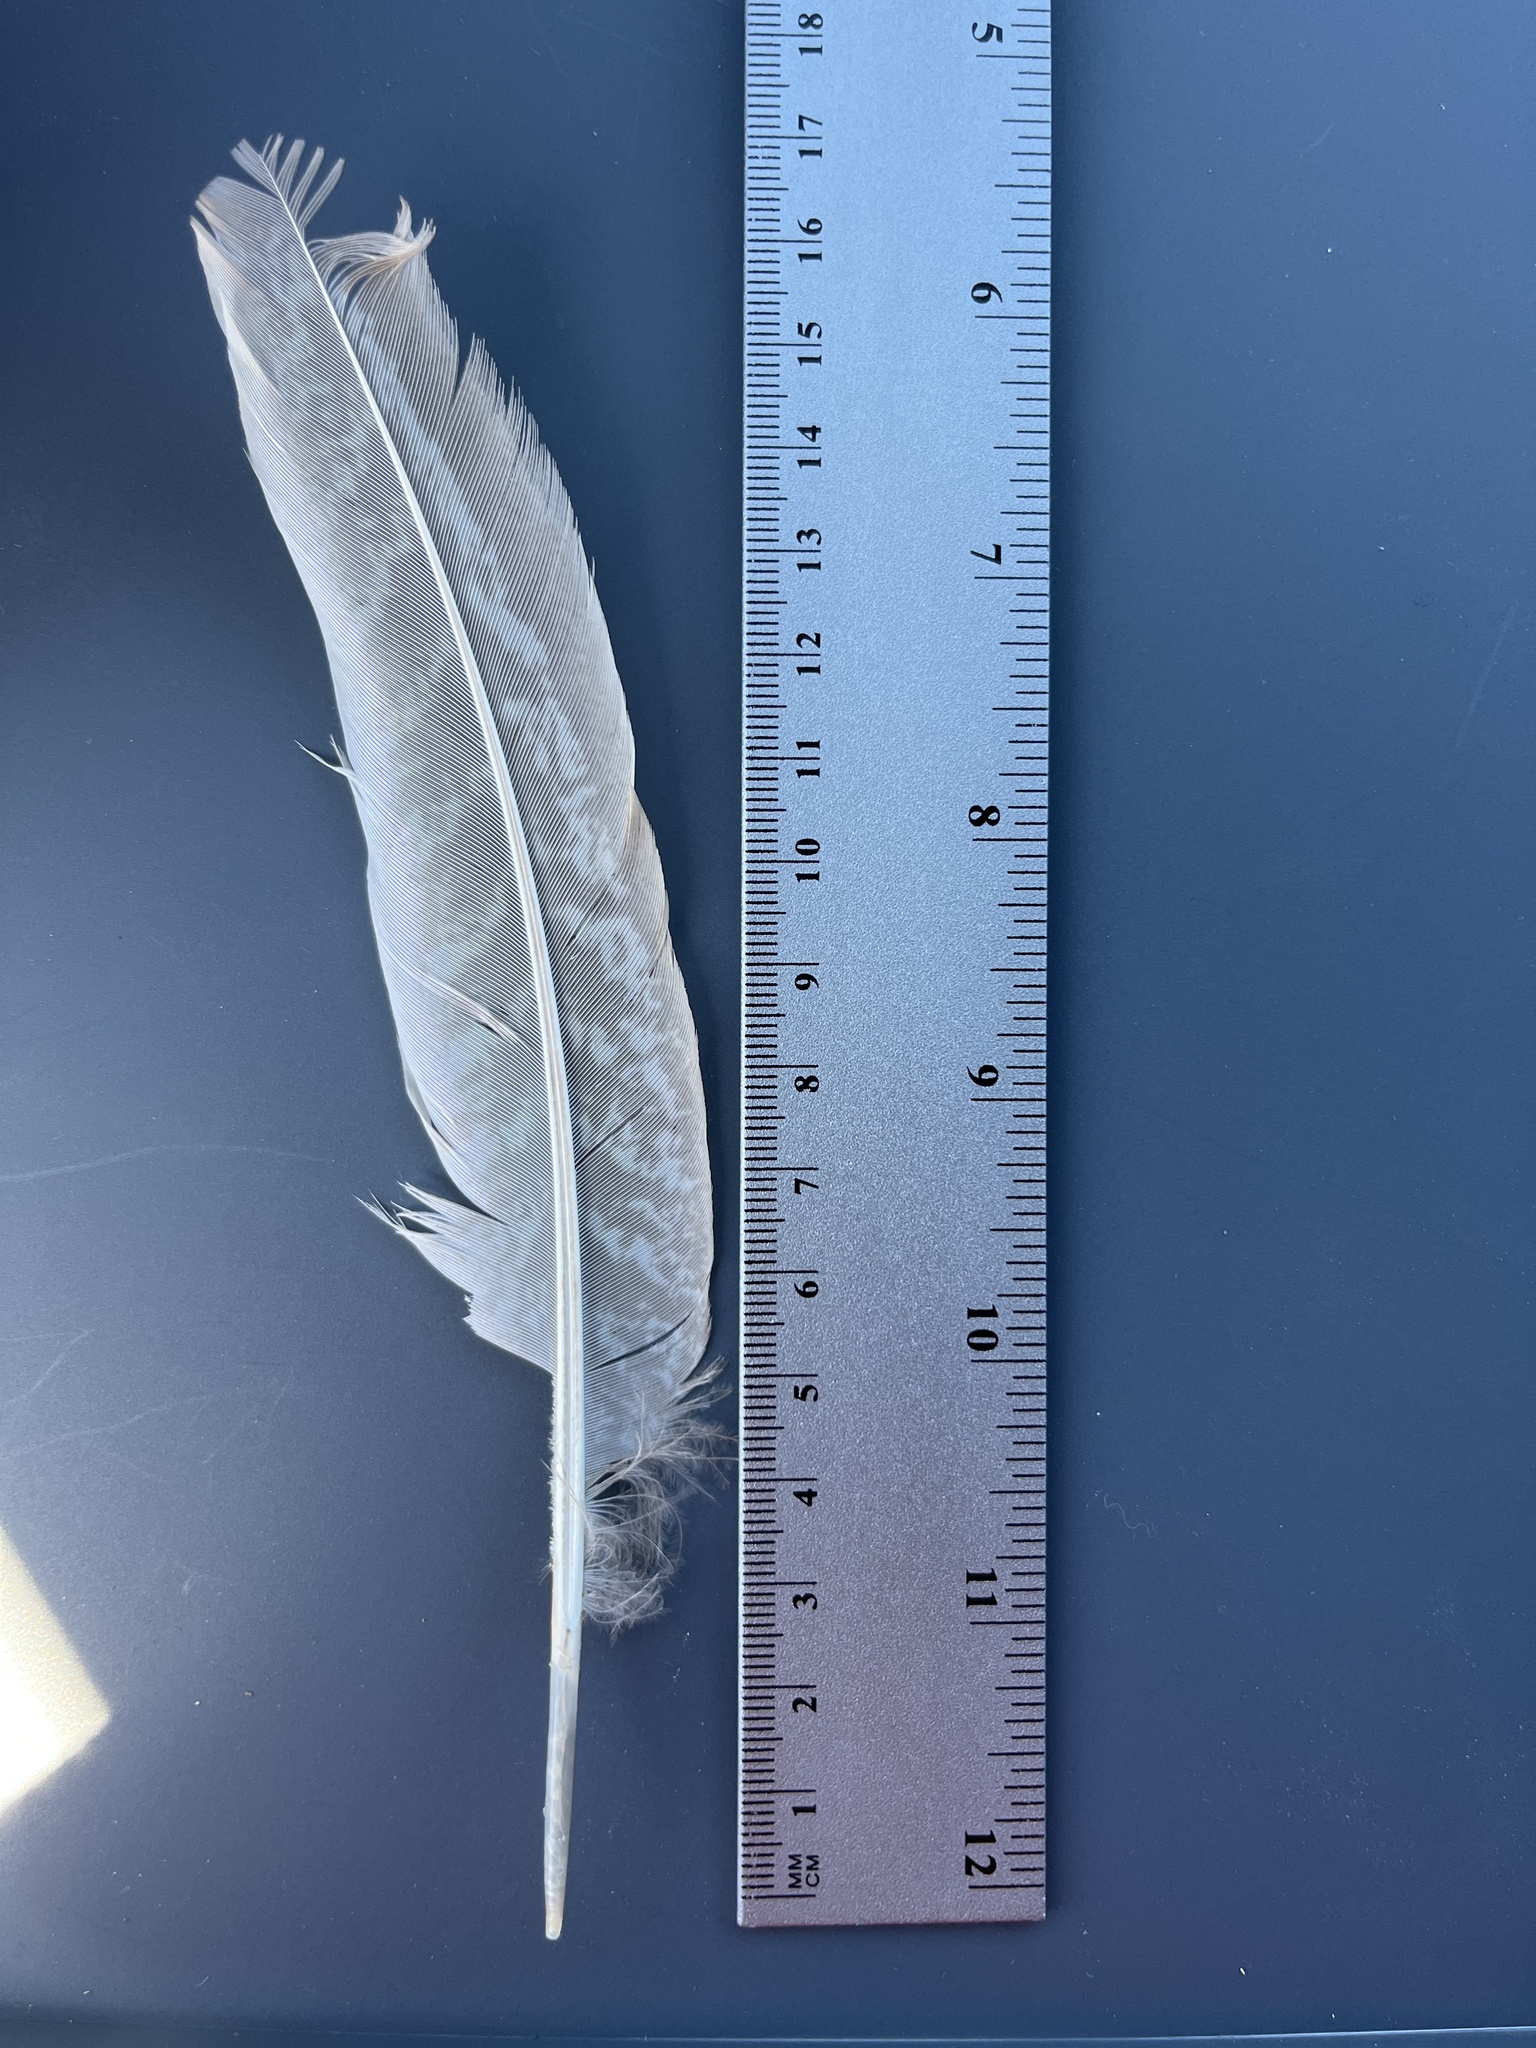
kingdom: Animalia
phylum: Chordata
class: Aves
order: Galliformes
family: Phasianidae
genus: Phasianus
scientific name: Phasianus colchicus
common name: Common pheasant
